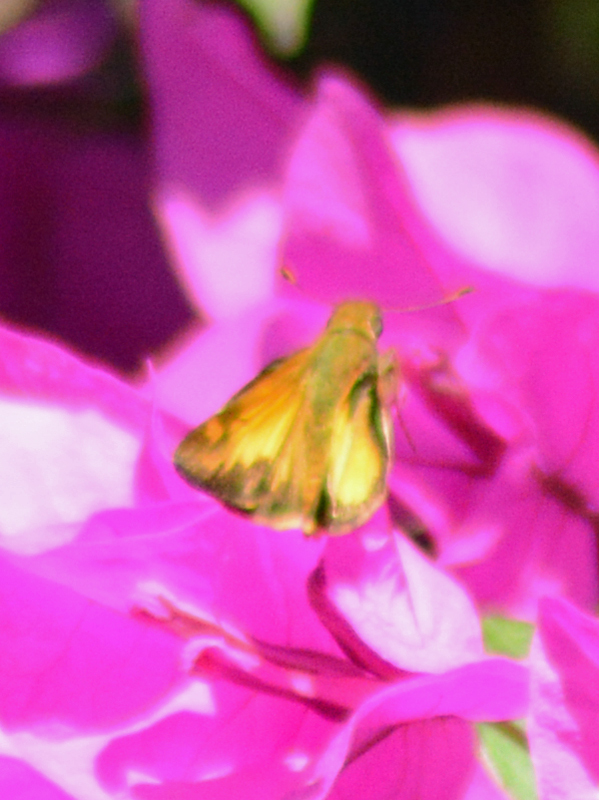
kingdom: Animalia
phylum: Arthropoda
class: Insecta
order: Lepidoptera
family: Hesperiidae
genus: Lon
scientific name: Lon zabulon
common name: Zabulon skipper
